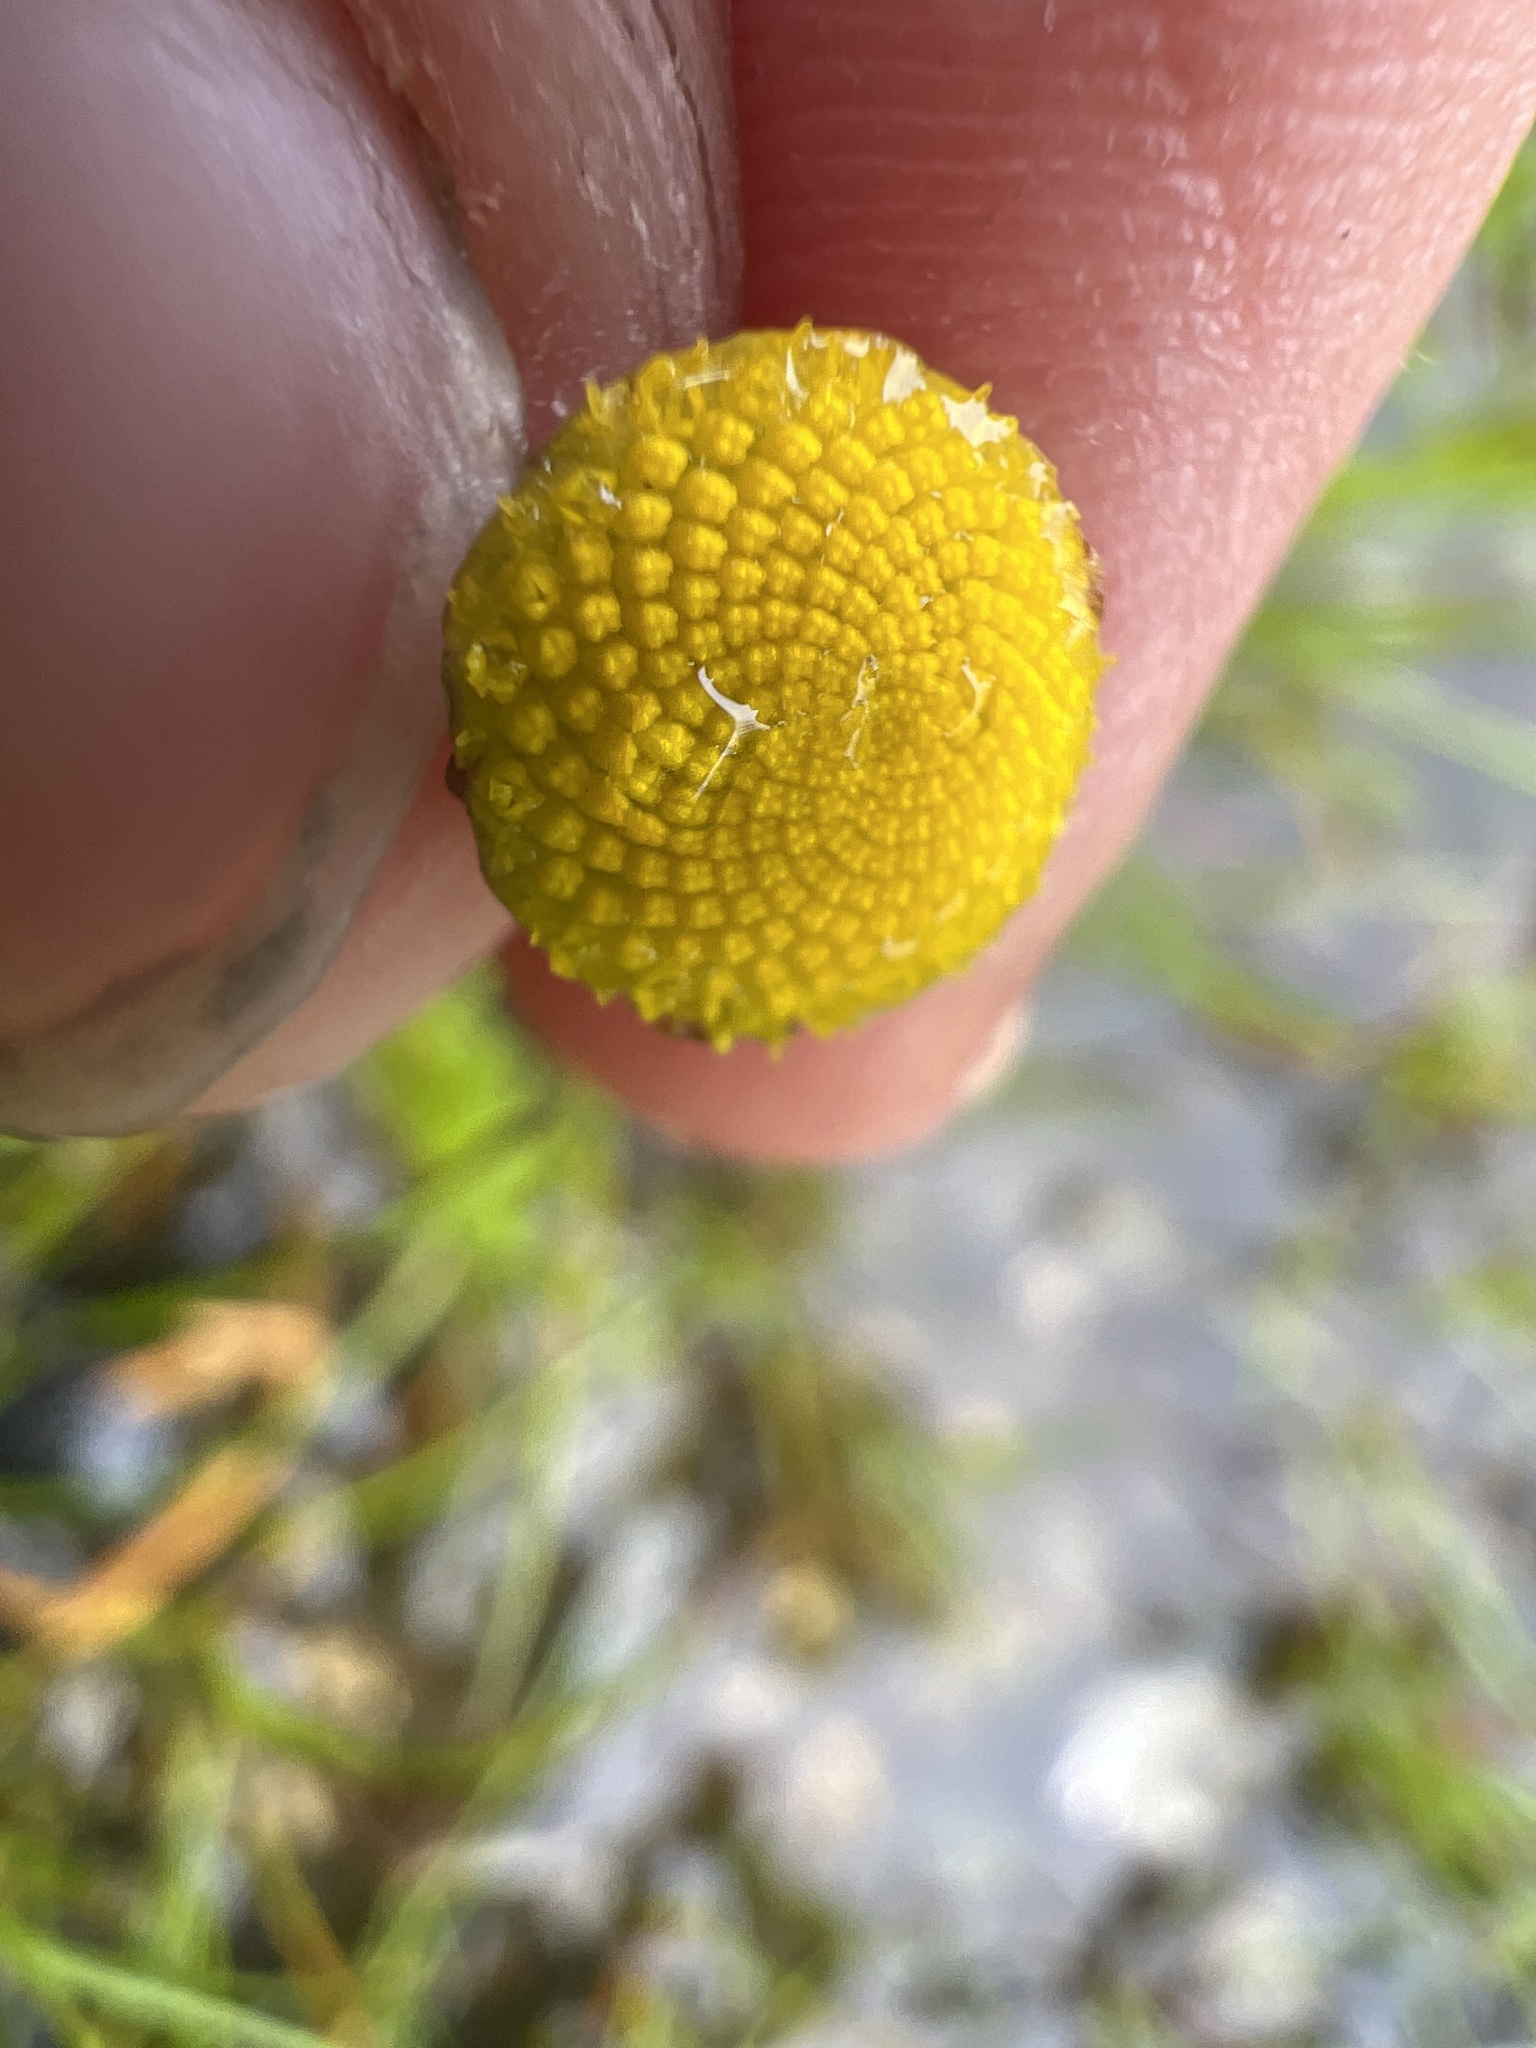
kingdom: Plantae
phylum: Tracheophyta
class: Magnoliopsida
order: Asterales
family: Asteraceae
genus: Cotula
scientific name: Cotula coronopifolia
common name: Buttonweed
